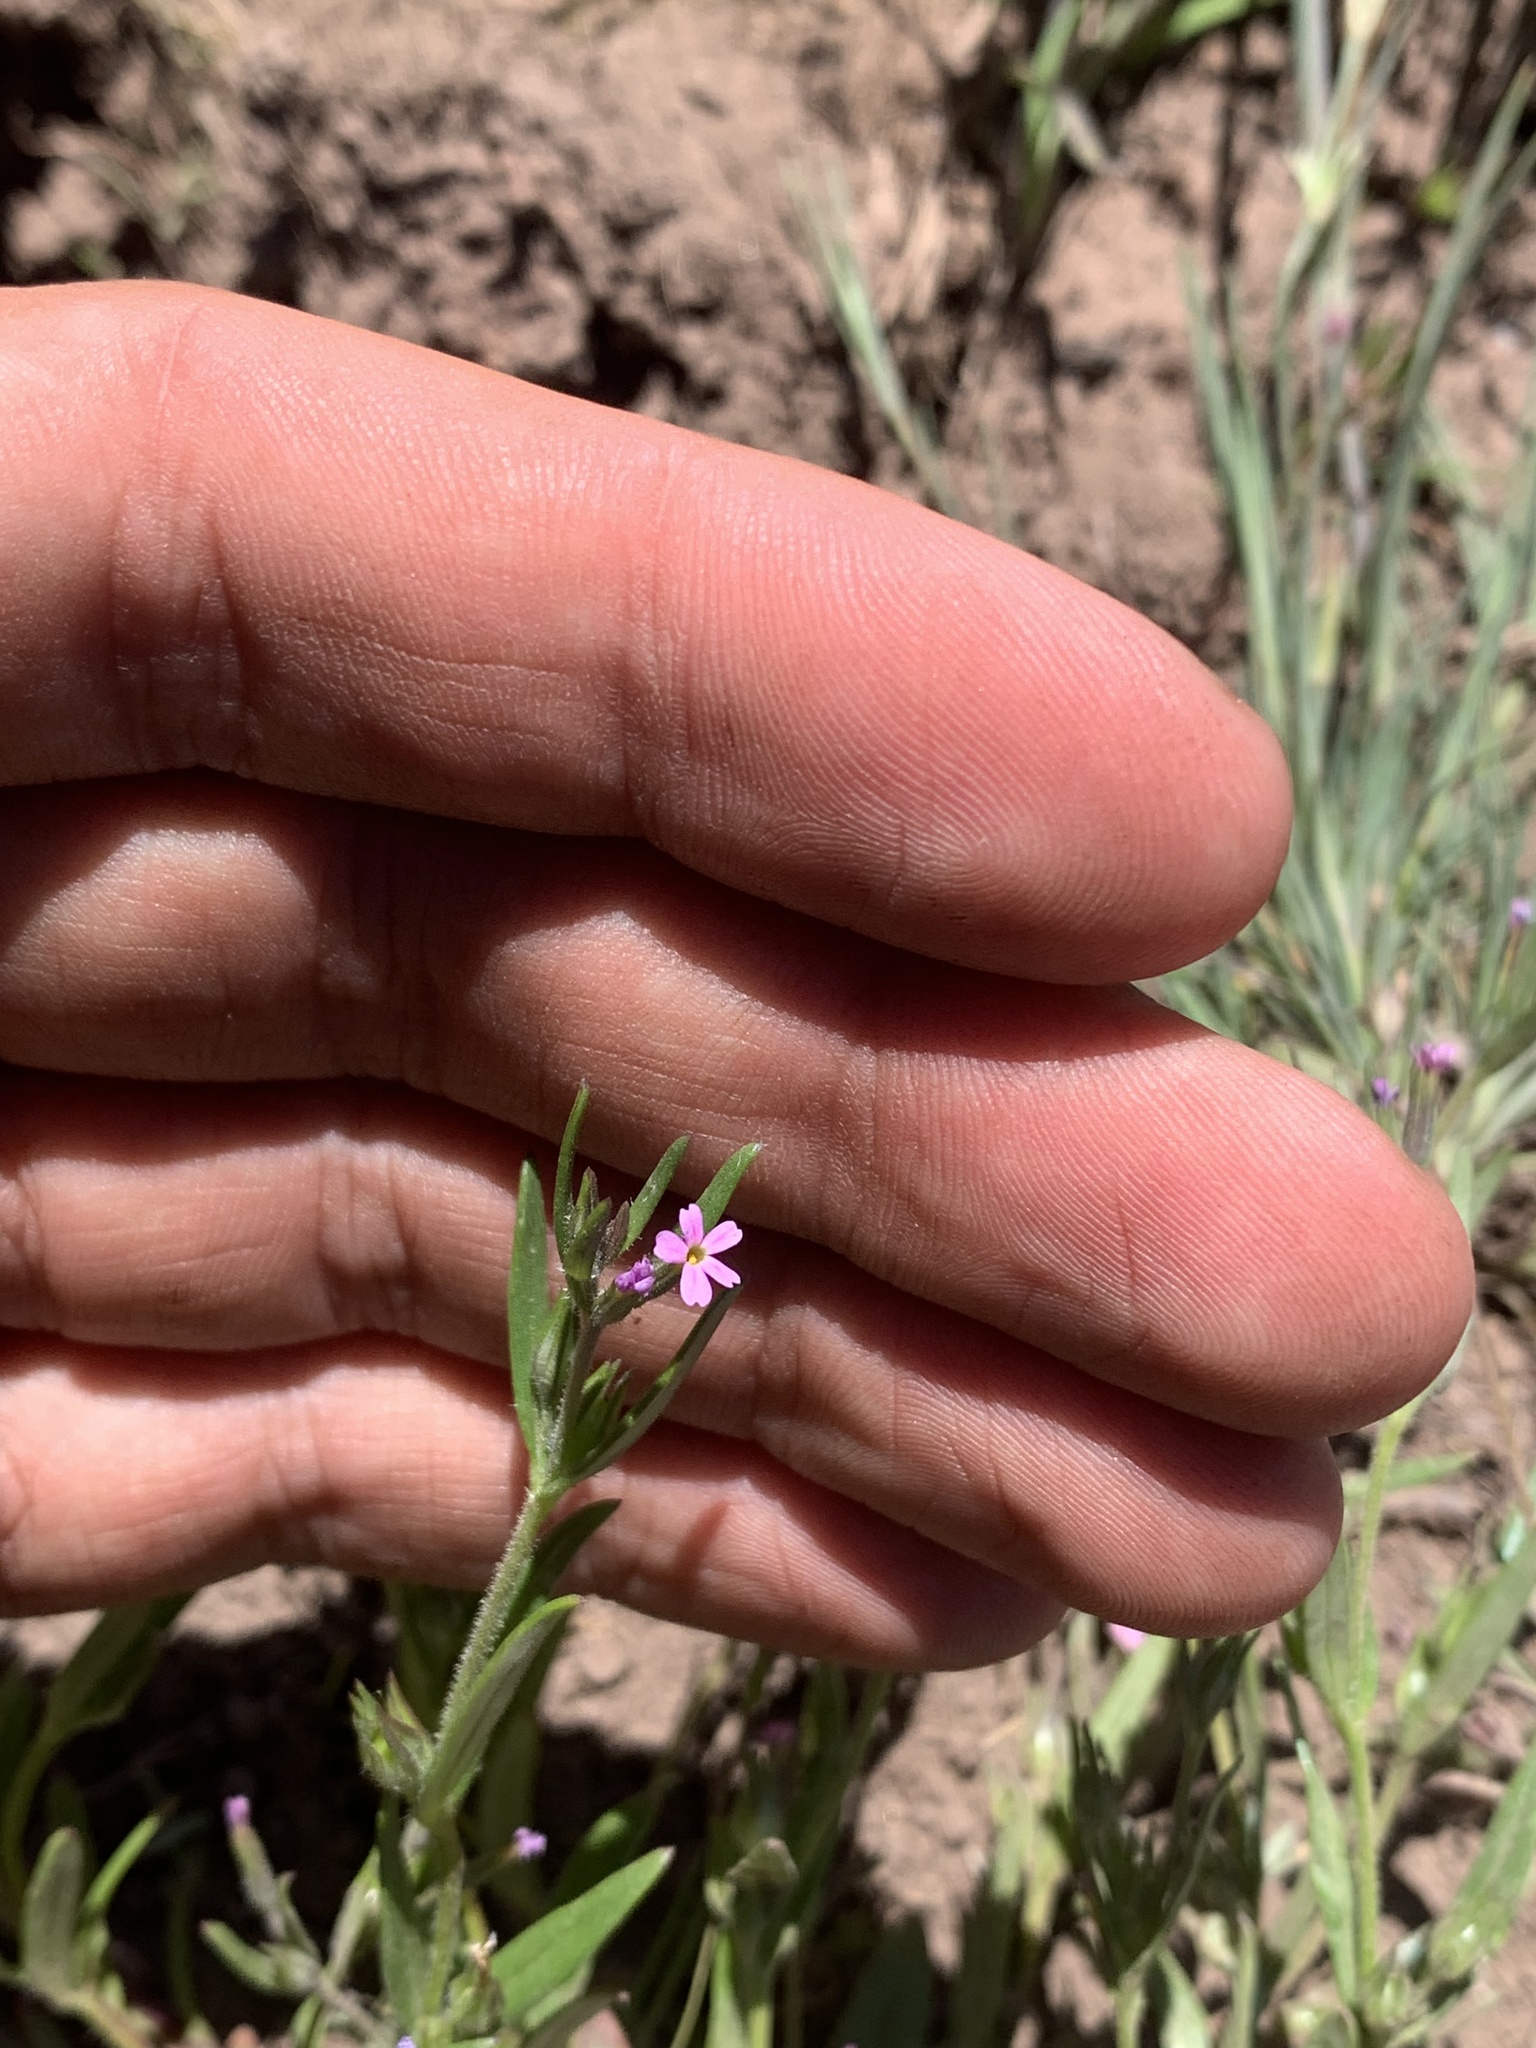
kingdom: Plantae
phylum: Tracheophyta
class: Magnoliopsida
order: Ericales
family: Polemoniaceae
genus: Phlox
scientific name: Phlox gracilis
